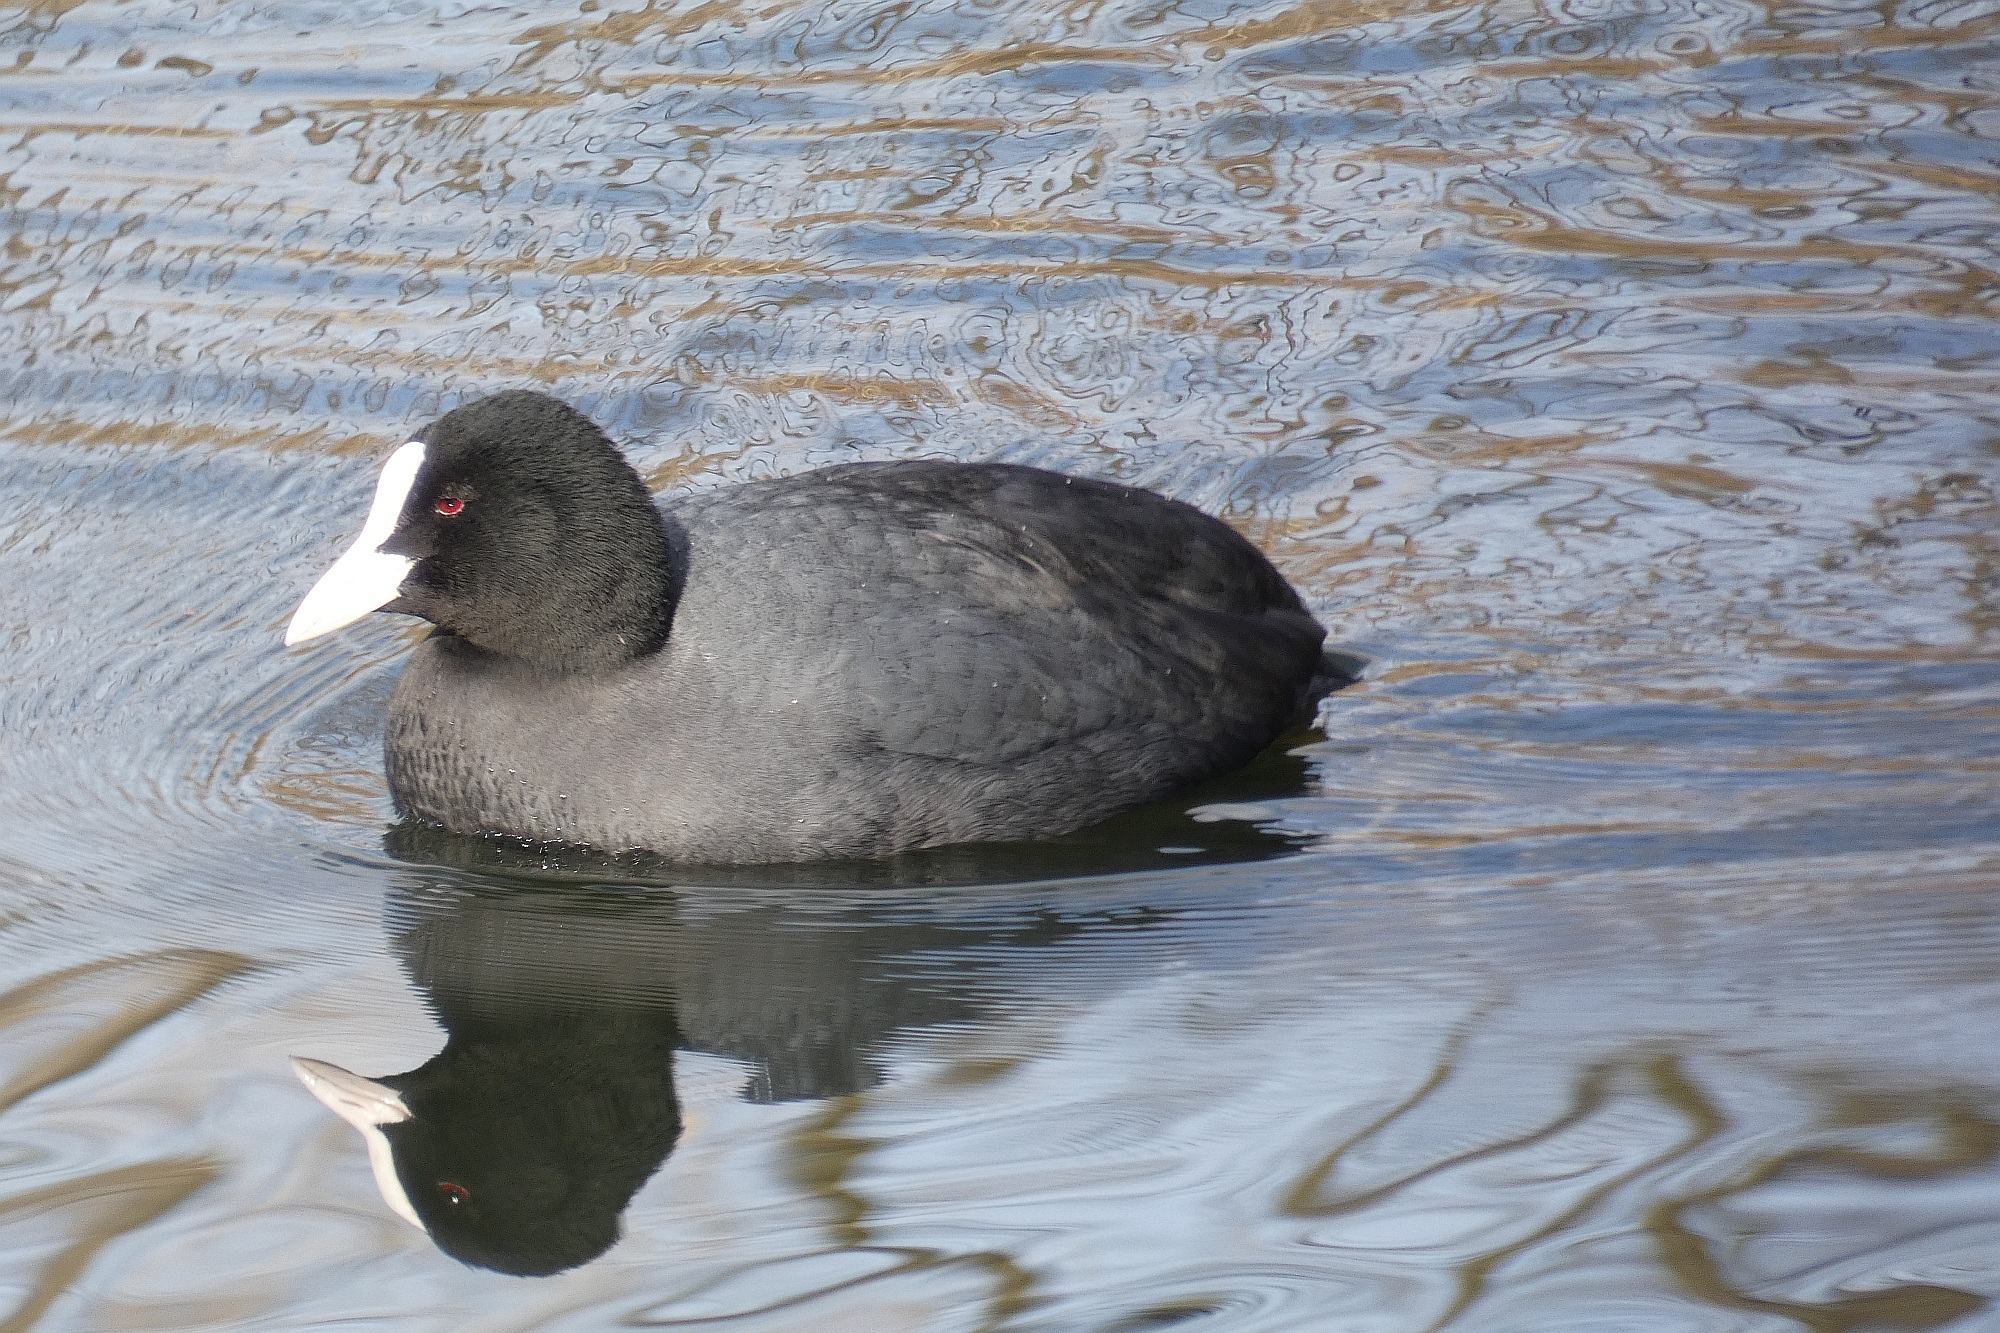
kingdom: Animalia
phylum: Chordata
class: Aves
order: Gruiformes
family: Rallidae
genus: Fulica
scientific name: Fulica atra
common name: Eurasian coot
